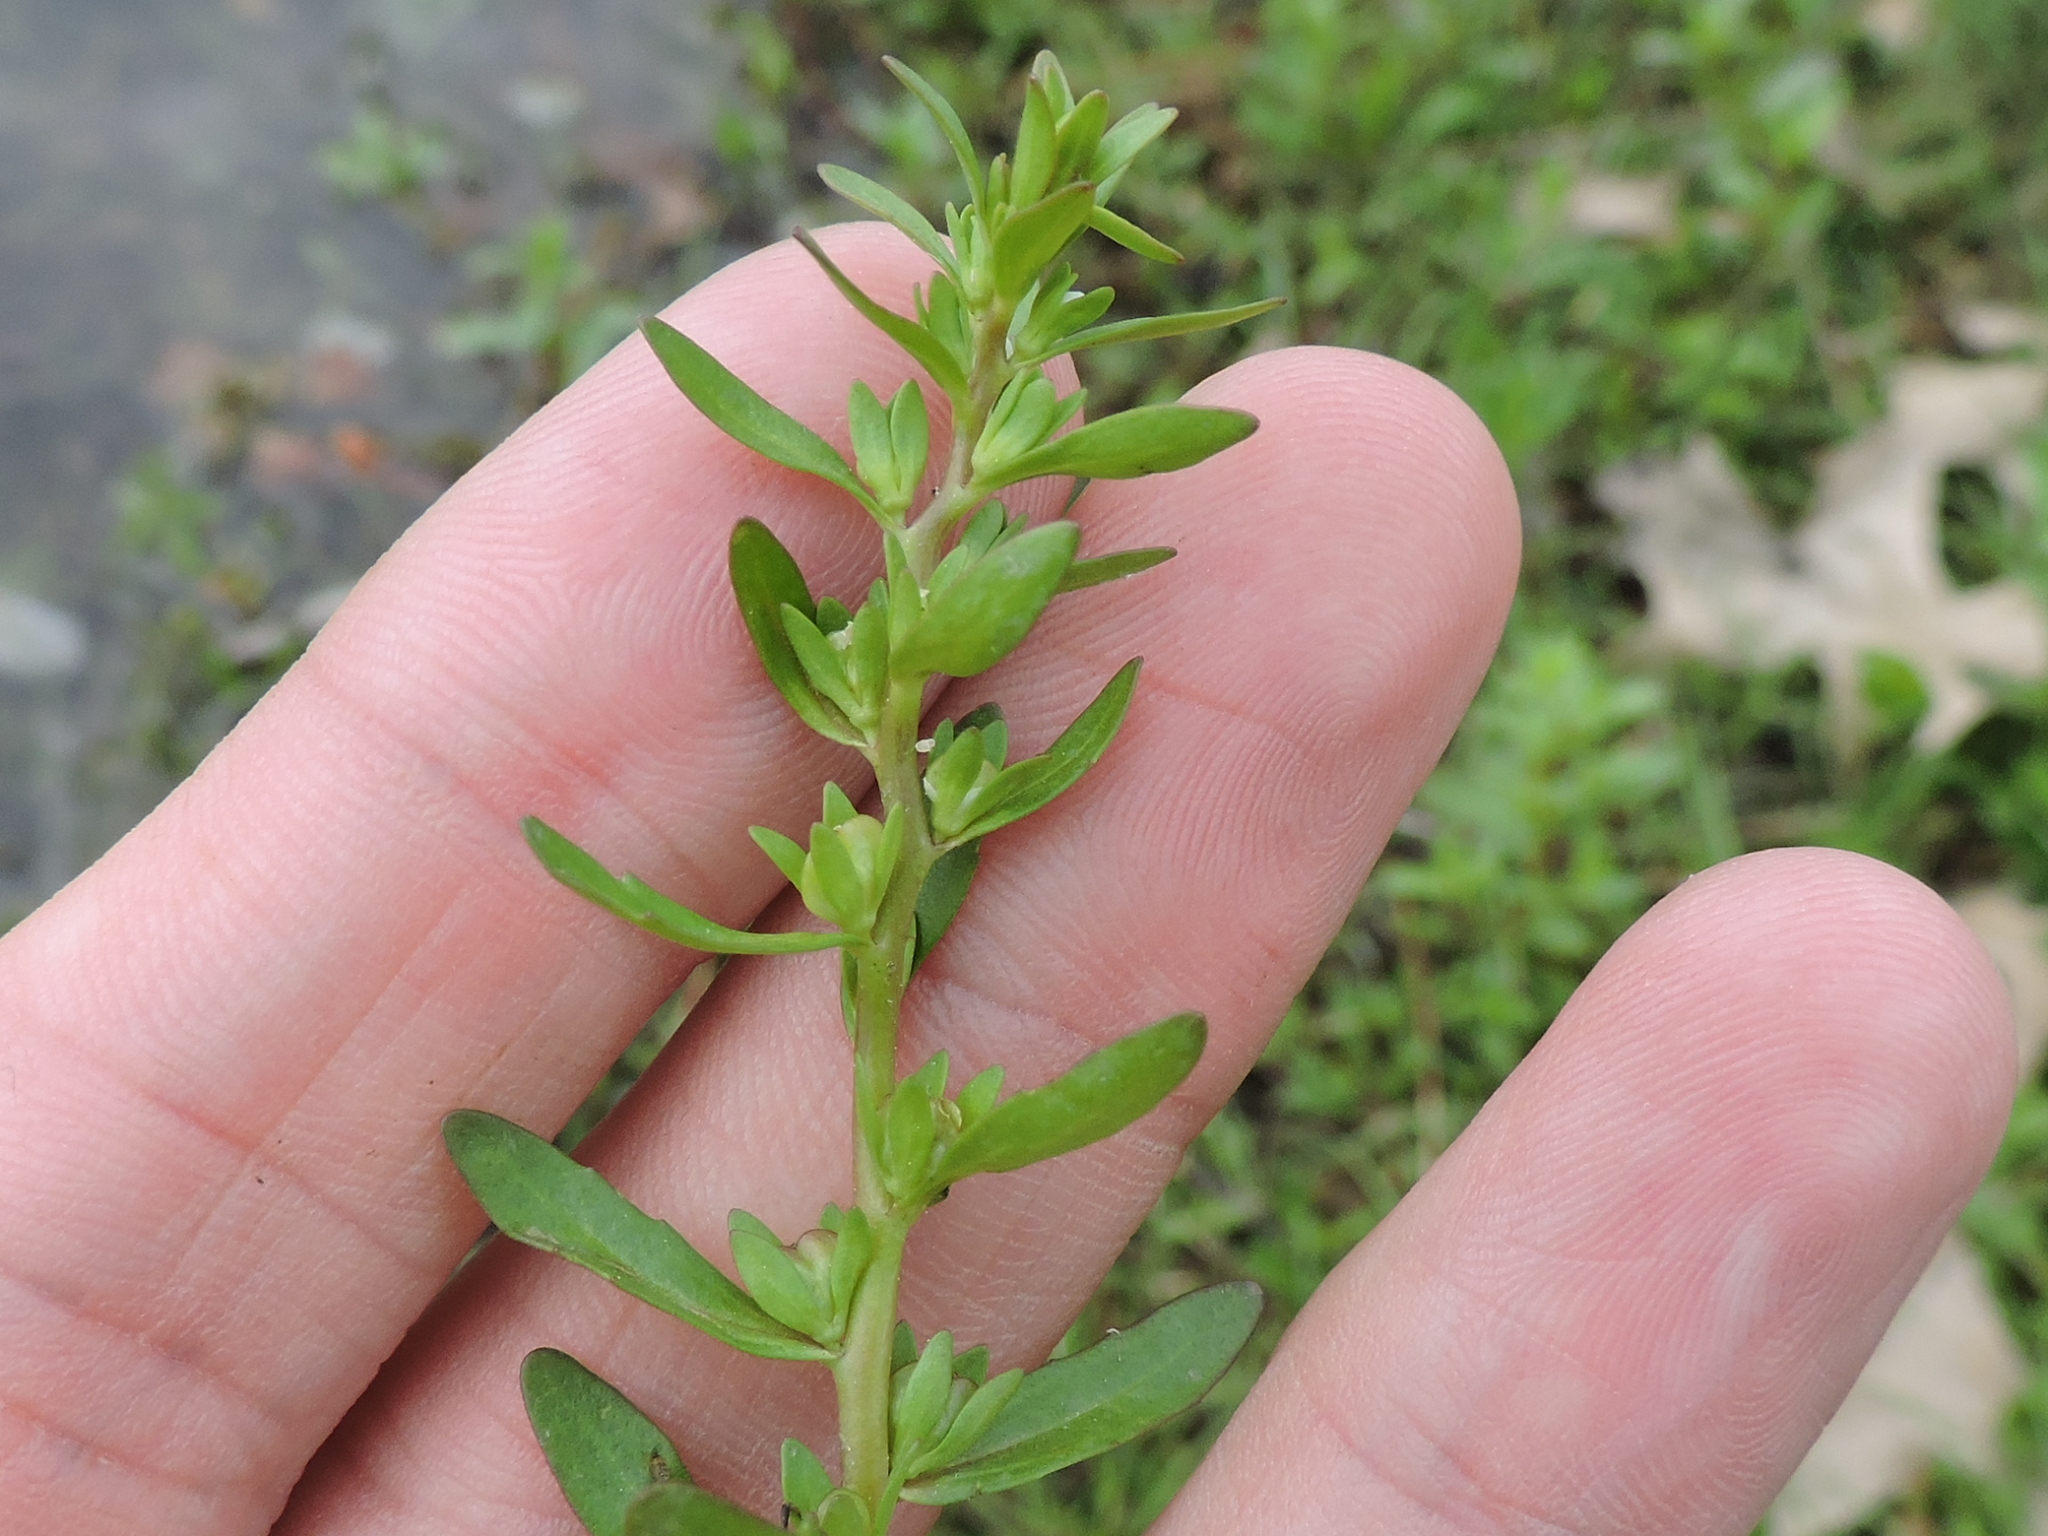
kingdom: Plantae
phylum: Tracheophyta
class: Magnoliopsida
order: Lamiales
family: Plantaginaceae
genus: Veronica
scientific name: Veronica peregrina
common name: Neckweed
